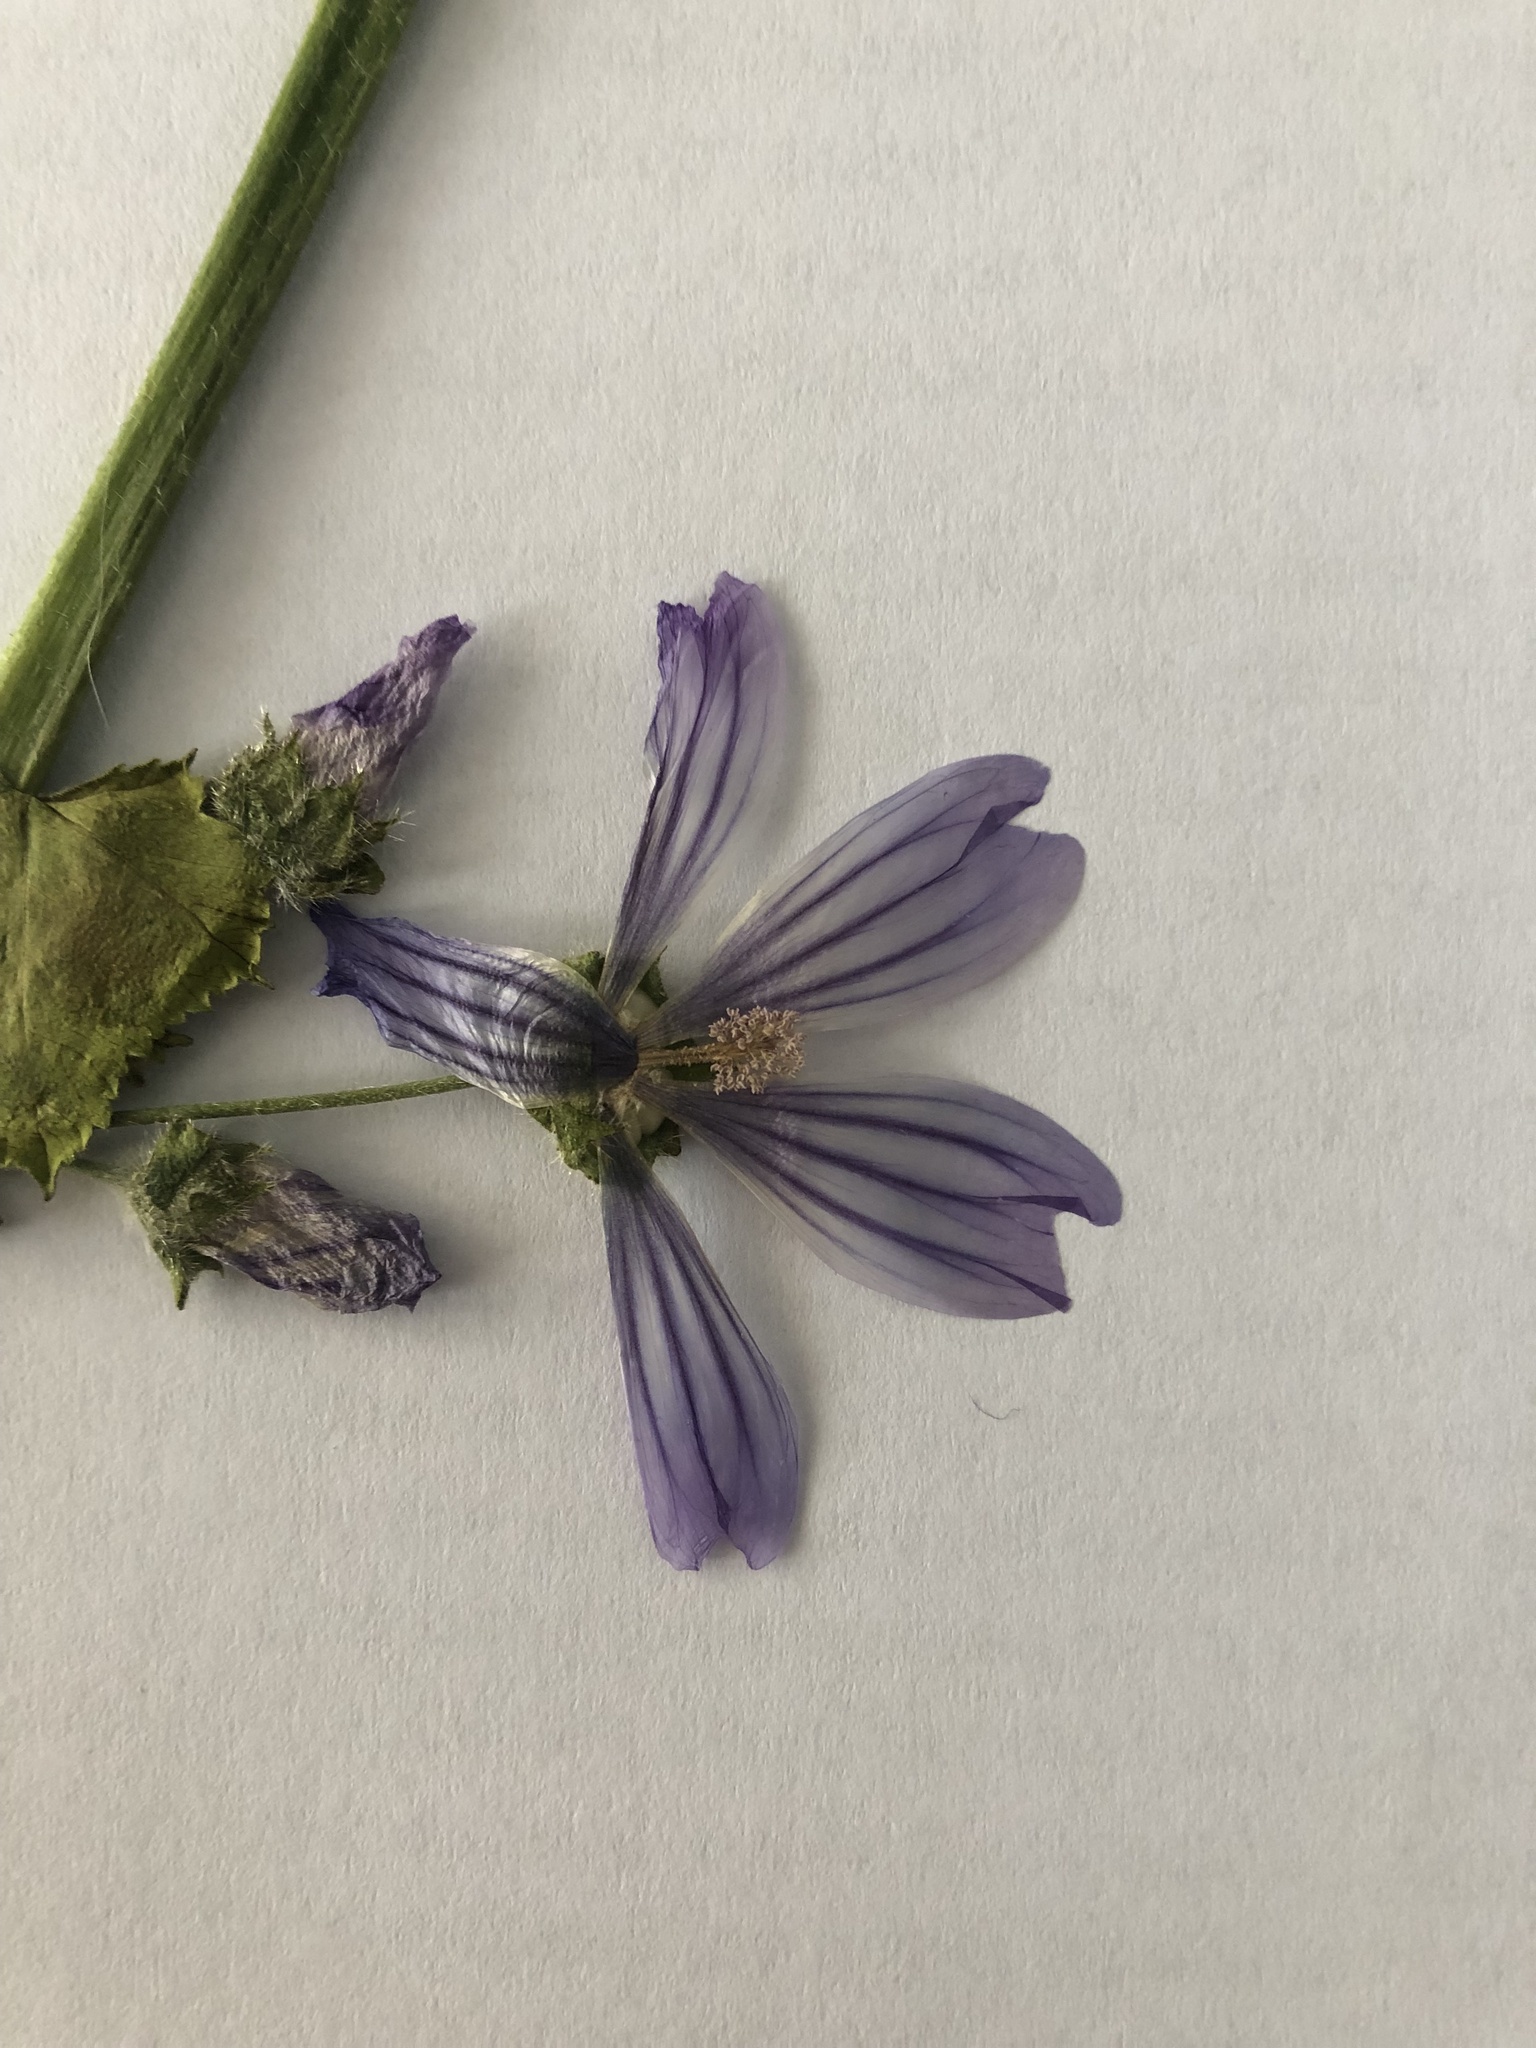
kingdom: Plantae
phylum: Tracheophyta
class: Magnoliopsida
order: Malvales
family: Malvaceae
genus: Malva
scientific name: Malva multiflora
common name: Cheeseweed
